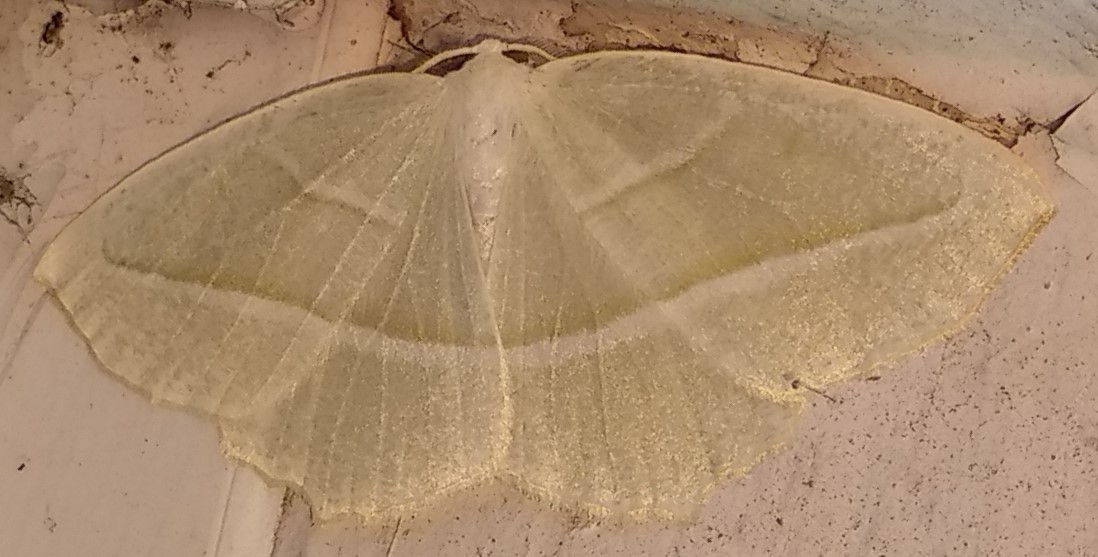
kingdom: Animalia
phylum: Arthropoda
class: Insecta
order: Lepidoptera
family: Geometridae
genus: Campaea
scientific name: Campaea perlata
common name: Fringed looper
